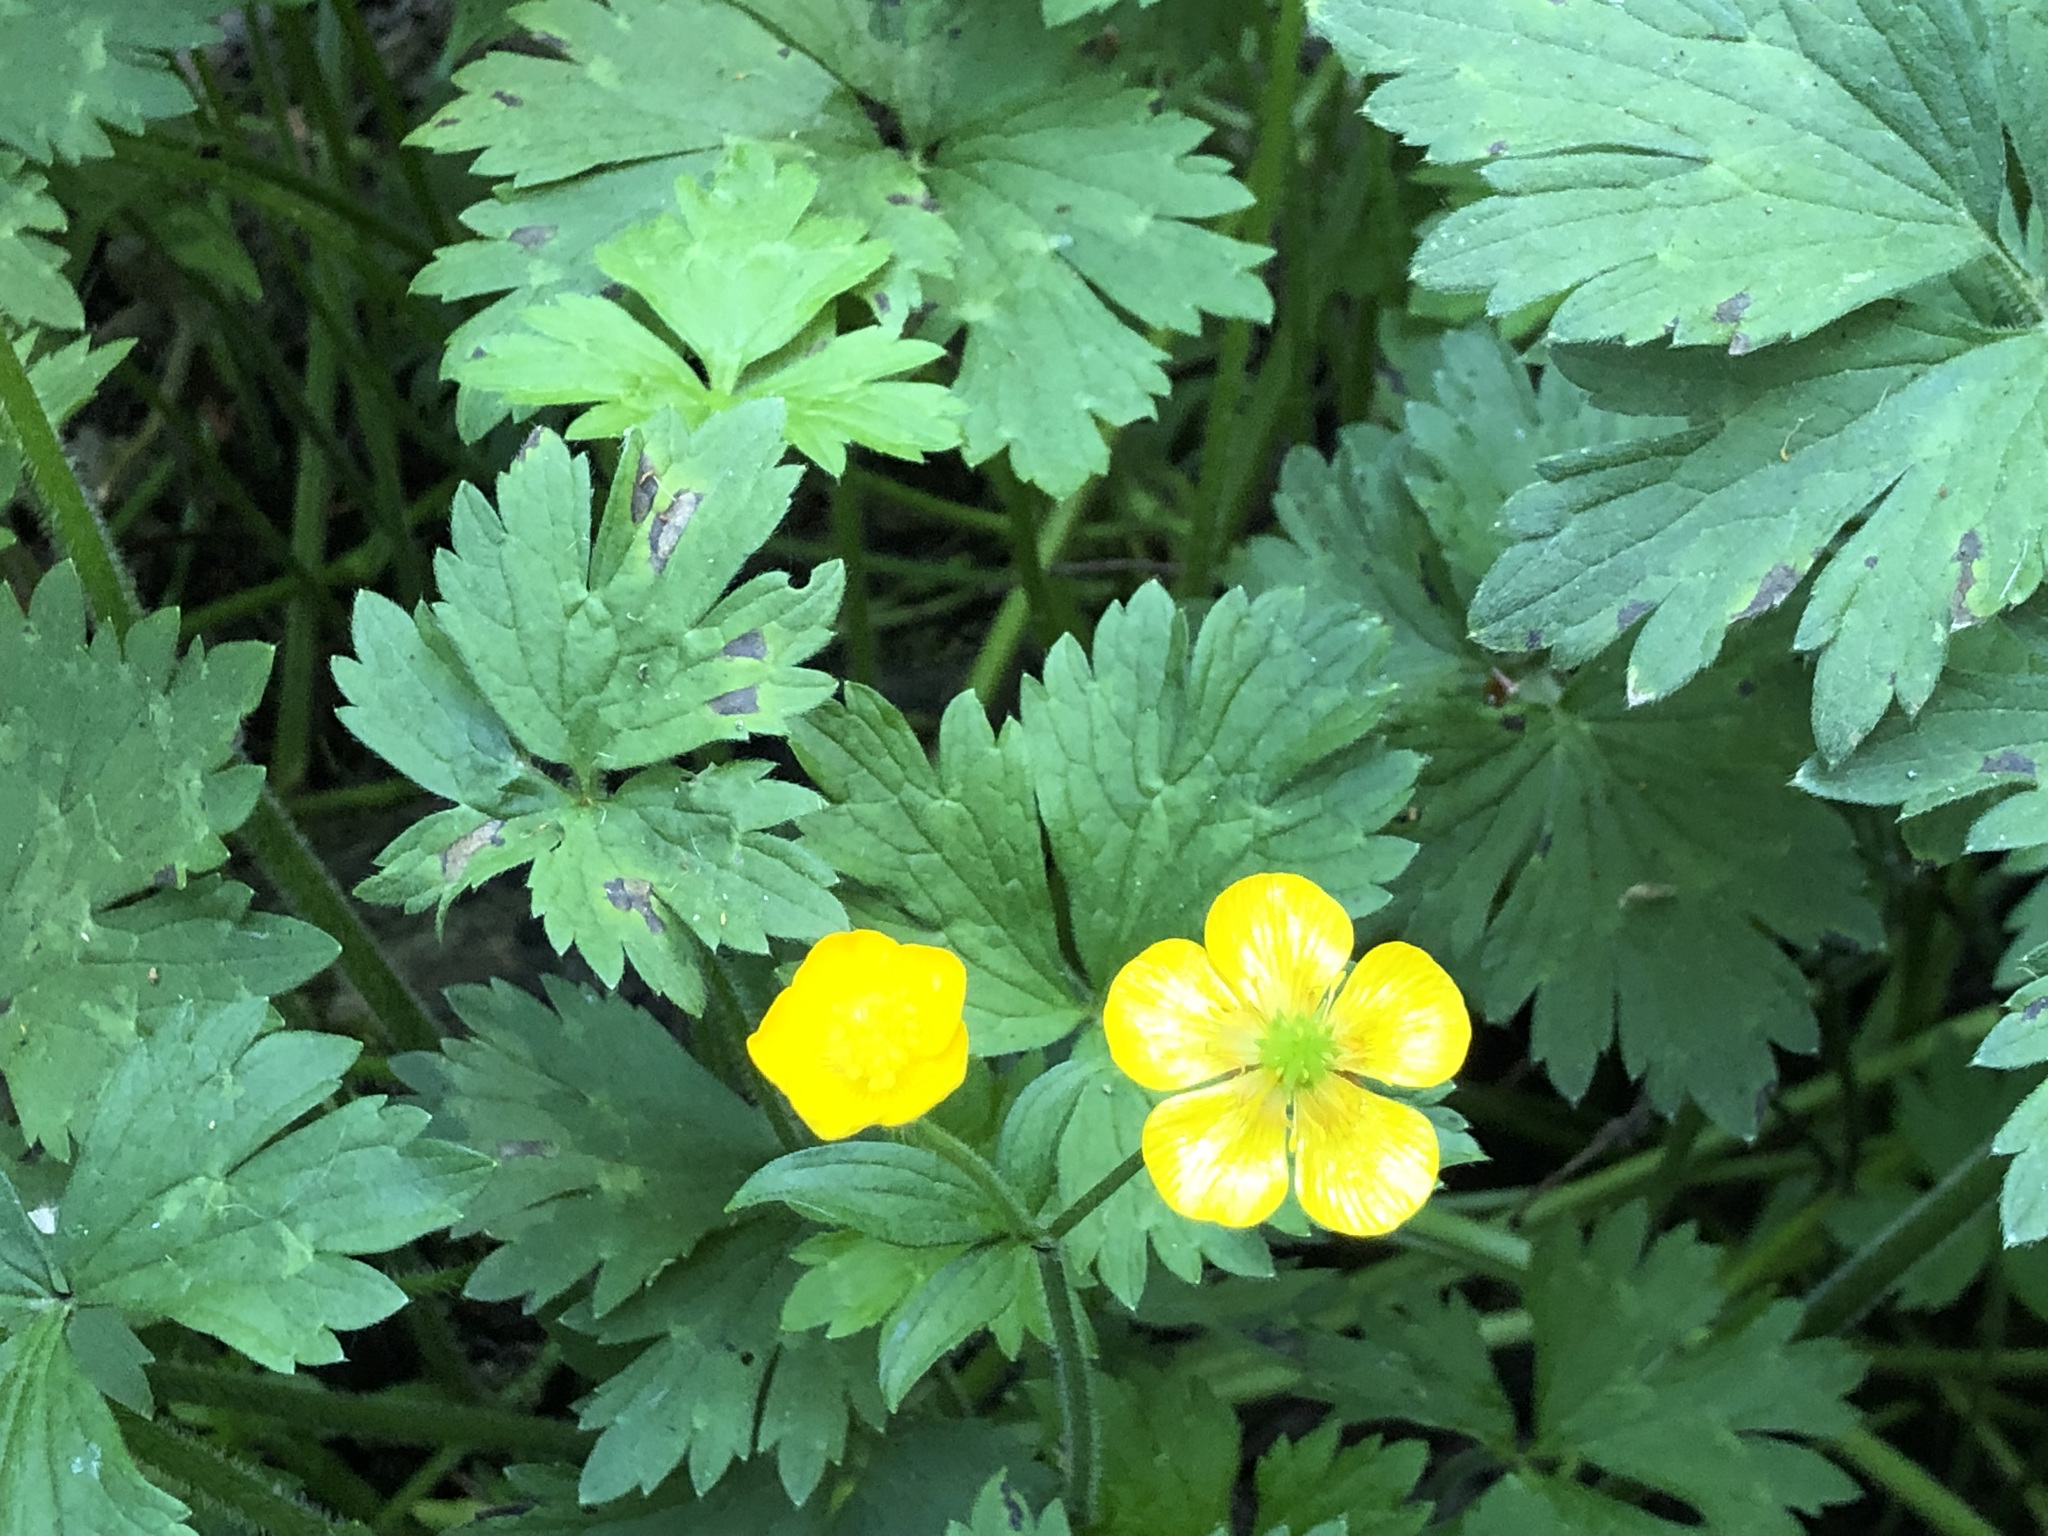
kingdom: Plantae
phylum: Tracheophyta
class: Magnoliopsida
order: Ranunculales
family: Ranunculaceae
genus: Ranunculus
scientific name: Ranunculus repens
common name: Creeping buttercup
